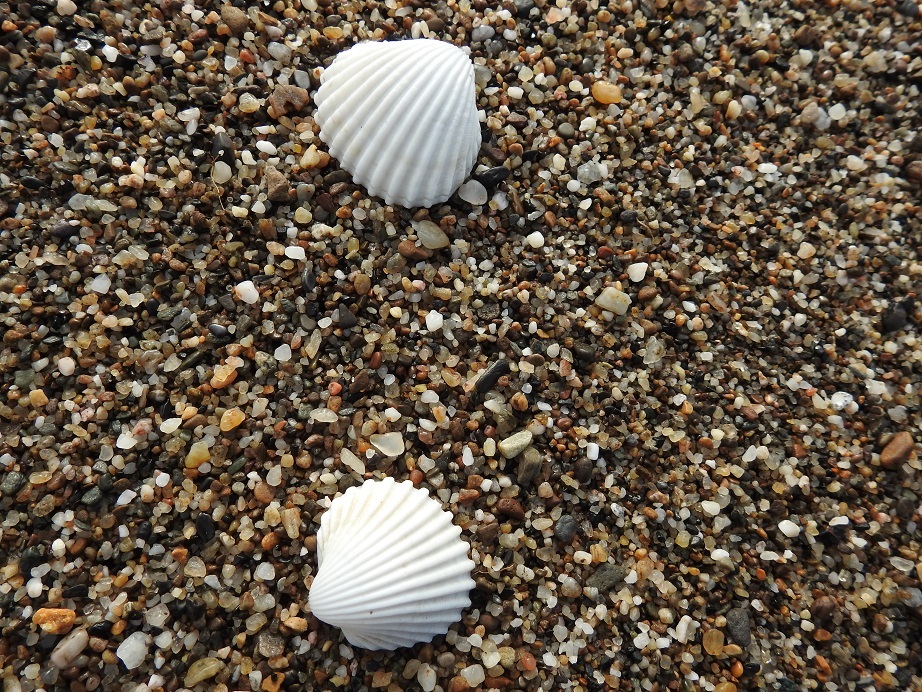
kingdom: Animalia
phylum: Mollusca
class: Bivalvia
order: Cardiida
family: Cardiidae
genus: Acanthocardia
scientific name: Acanthocardia tuberculata
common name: Rough cockle
